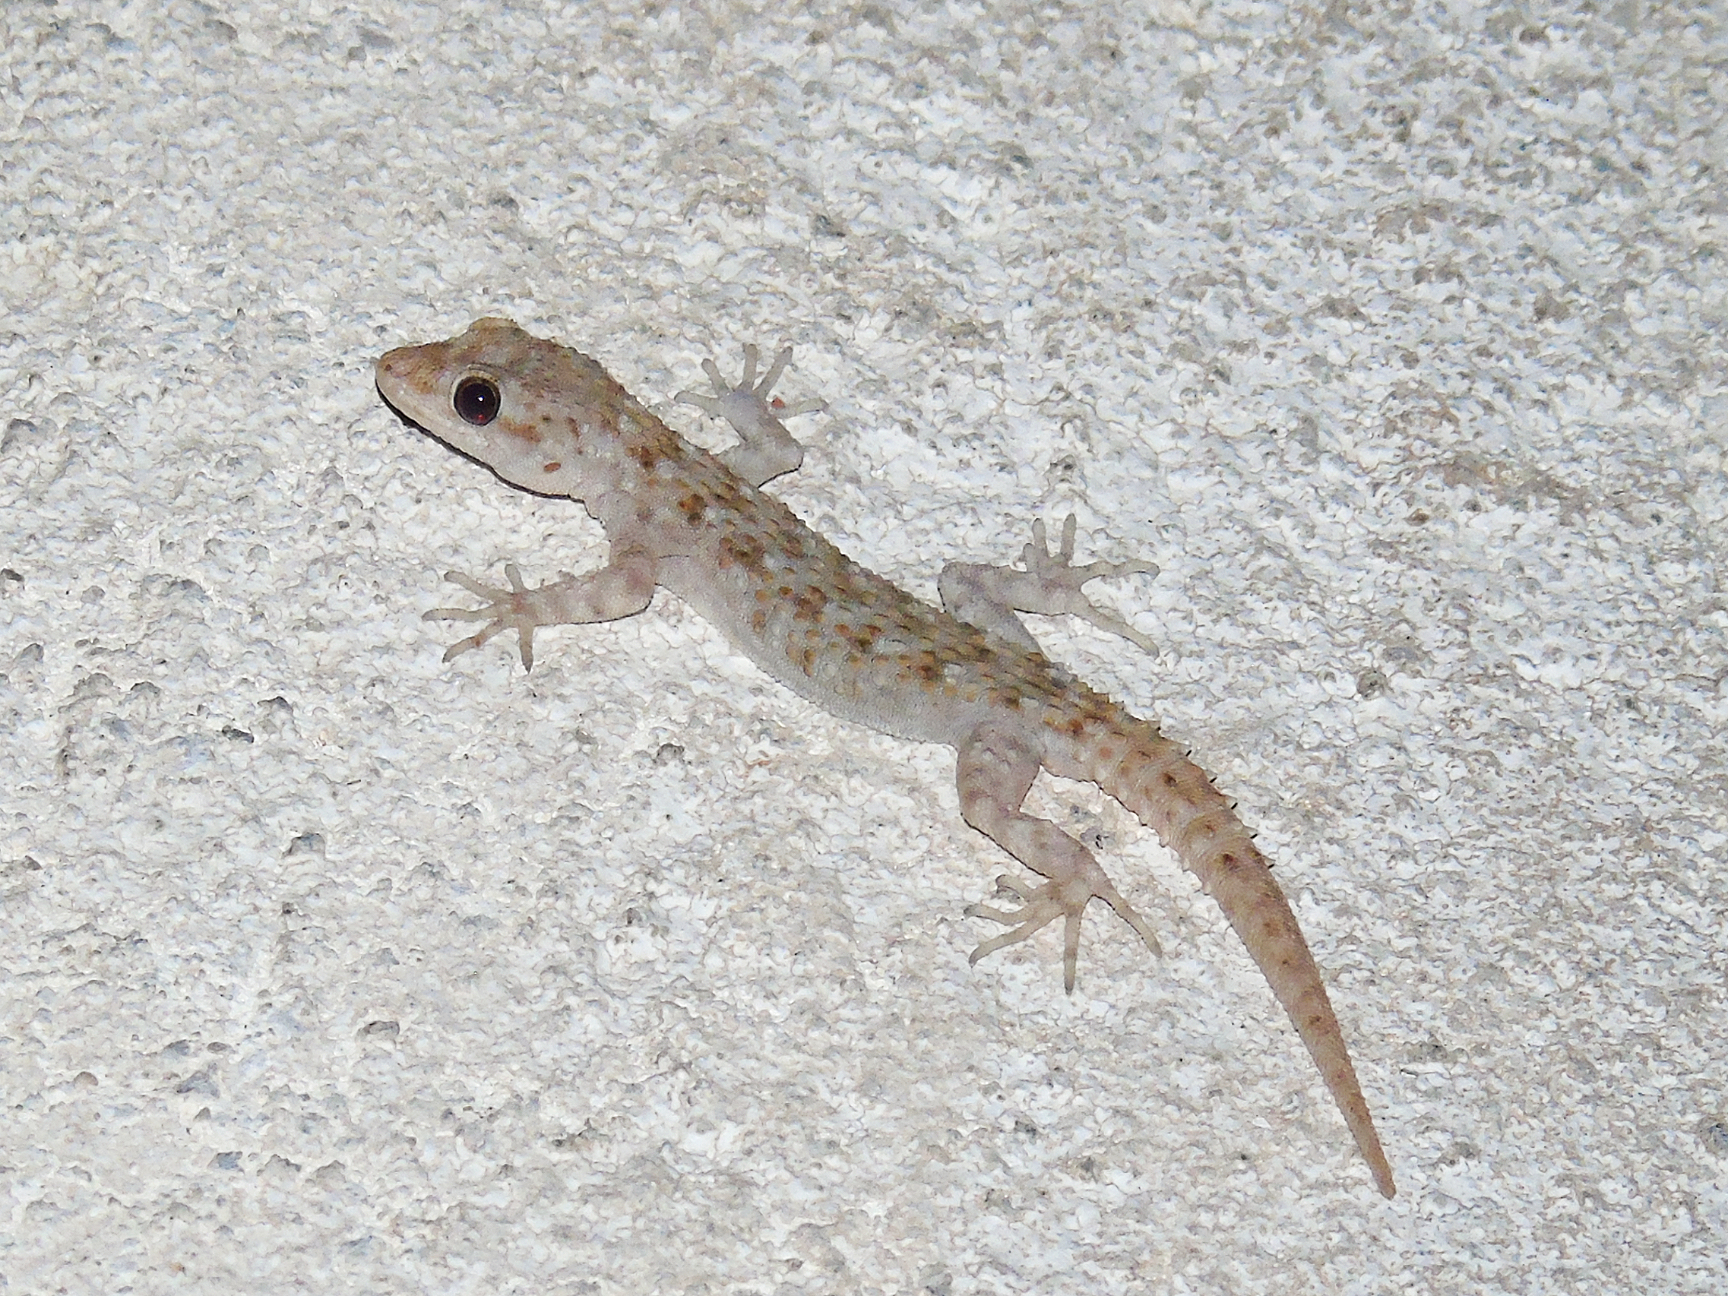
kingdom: Animalia
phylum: Chordata
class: Squamata
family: Gekkonidae
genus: Mediodactylus
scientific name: Mediodactylus kotschyi
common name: Kotschy's gecko
